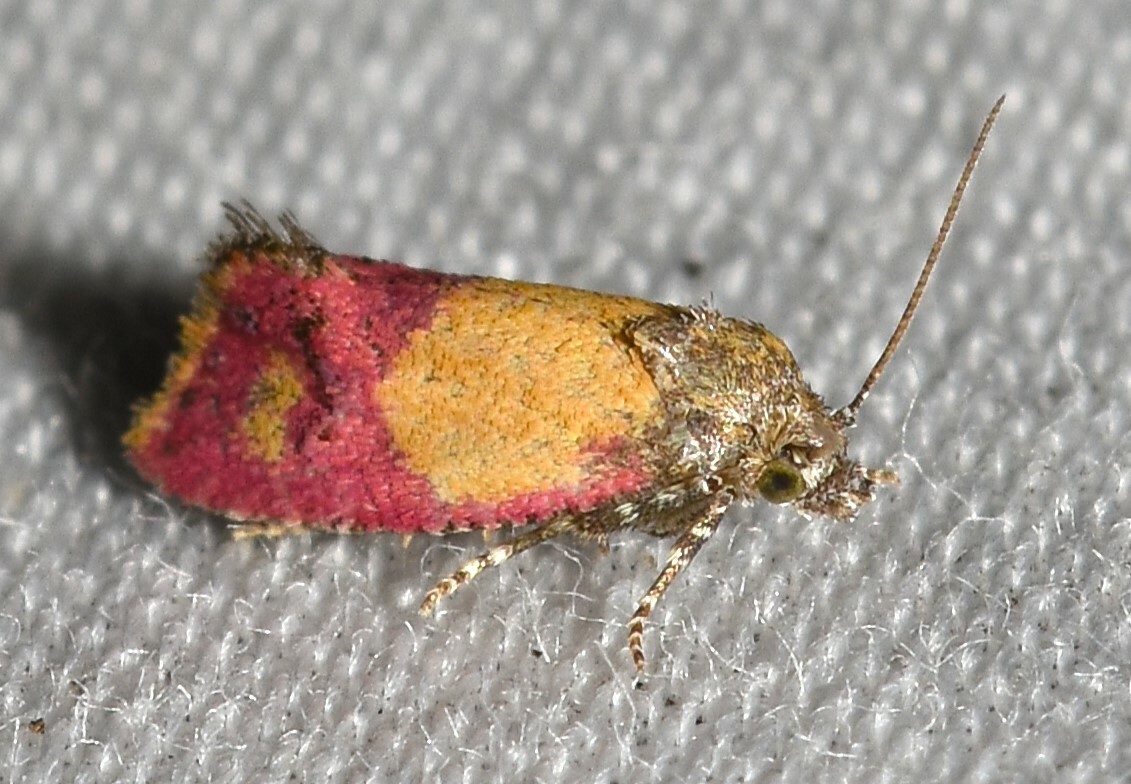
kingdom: Animalia
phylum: Arthropoda
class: Insecta
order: Lepidoptera
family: Tortricidae
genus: Conchylis
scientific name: Conchylis oenotherana
